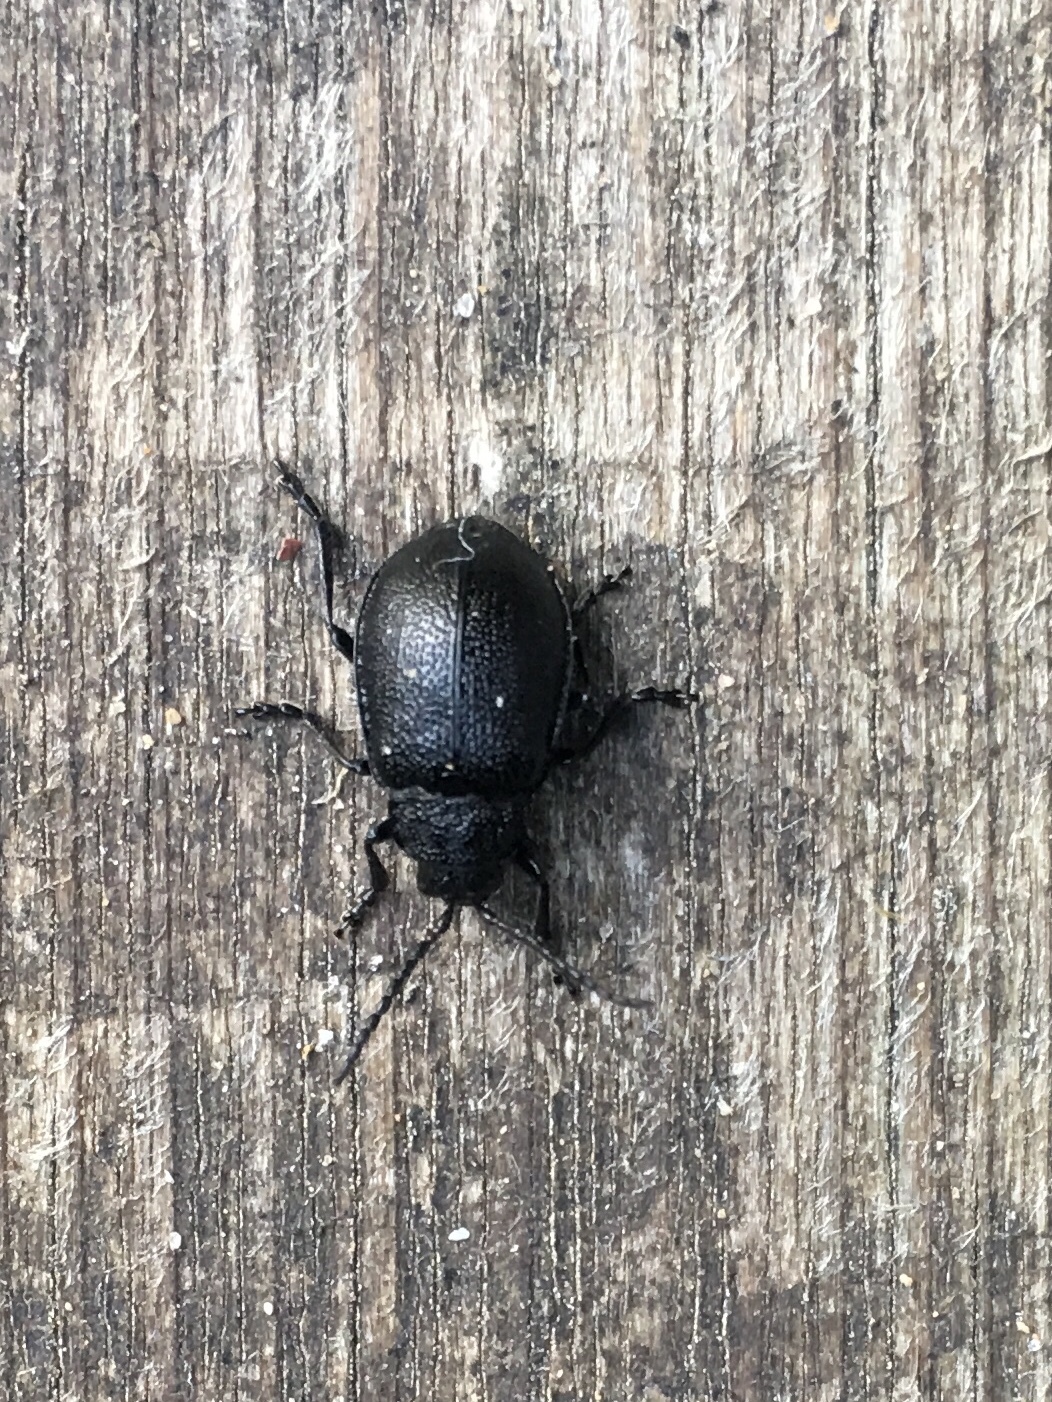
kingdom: Animalia
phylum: Arthropoda
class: Insecta
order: Coleoptera
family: Chrysomelidae
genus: Galeruca
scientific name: Galeruca tanaceti
